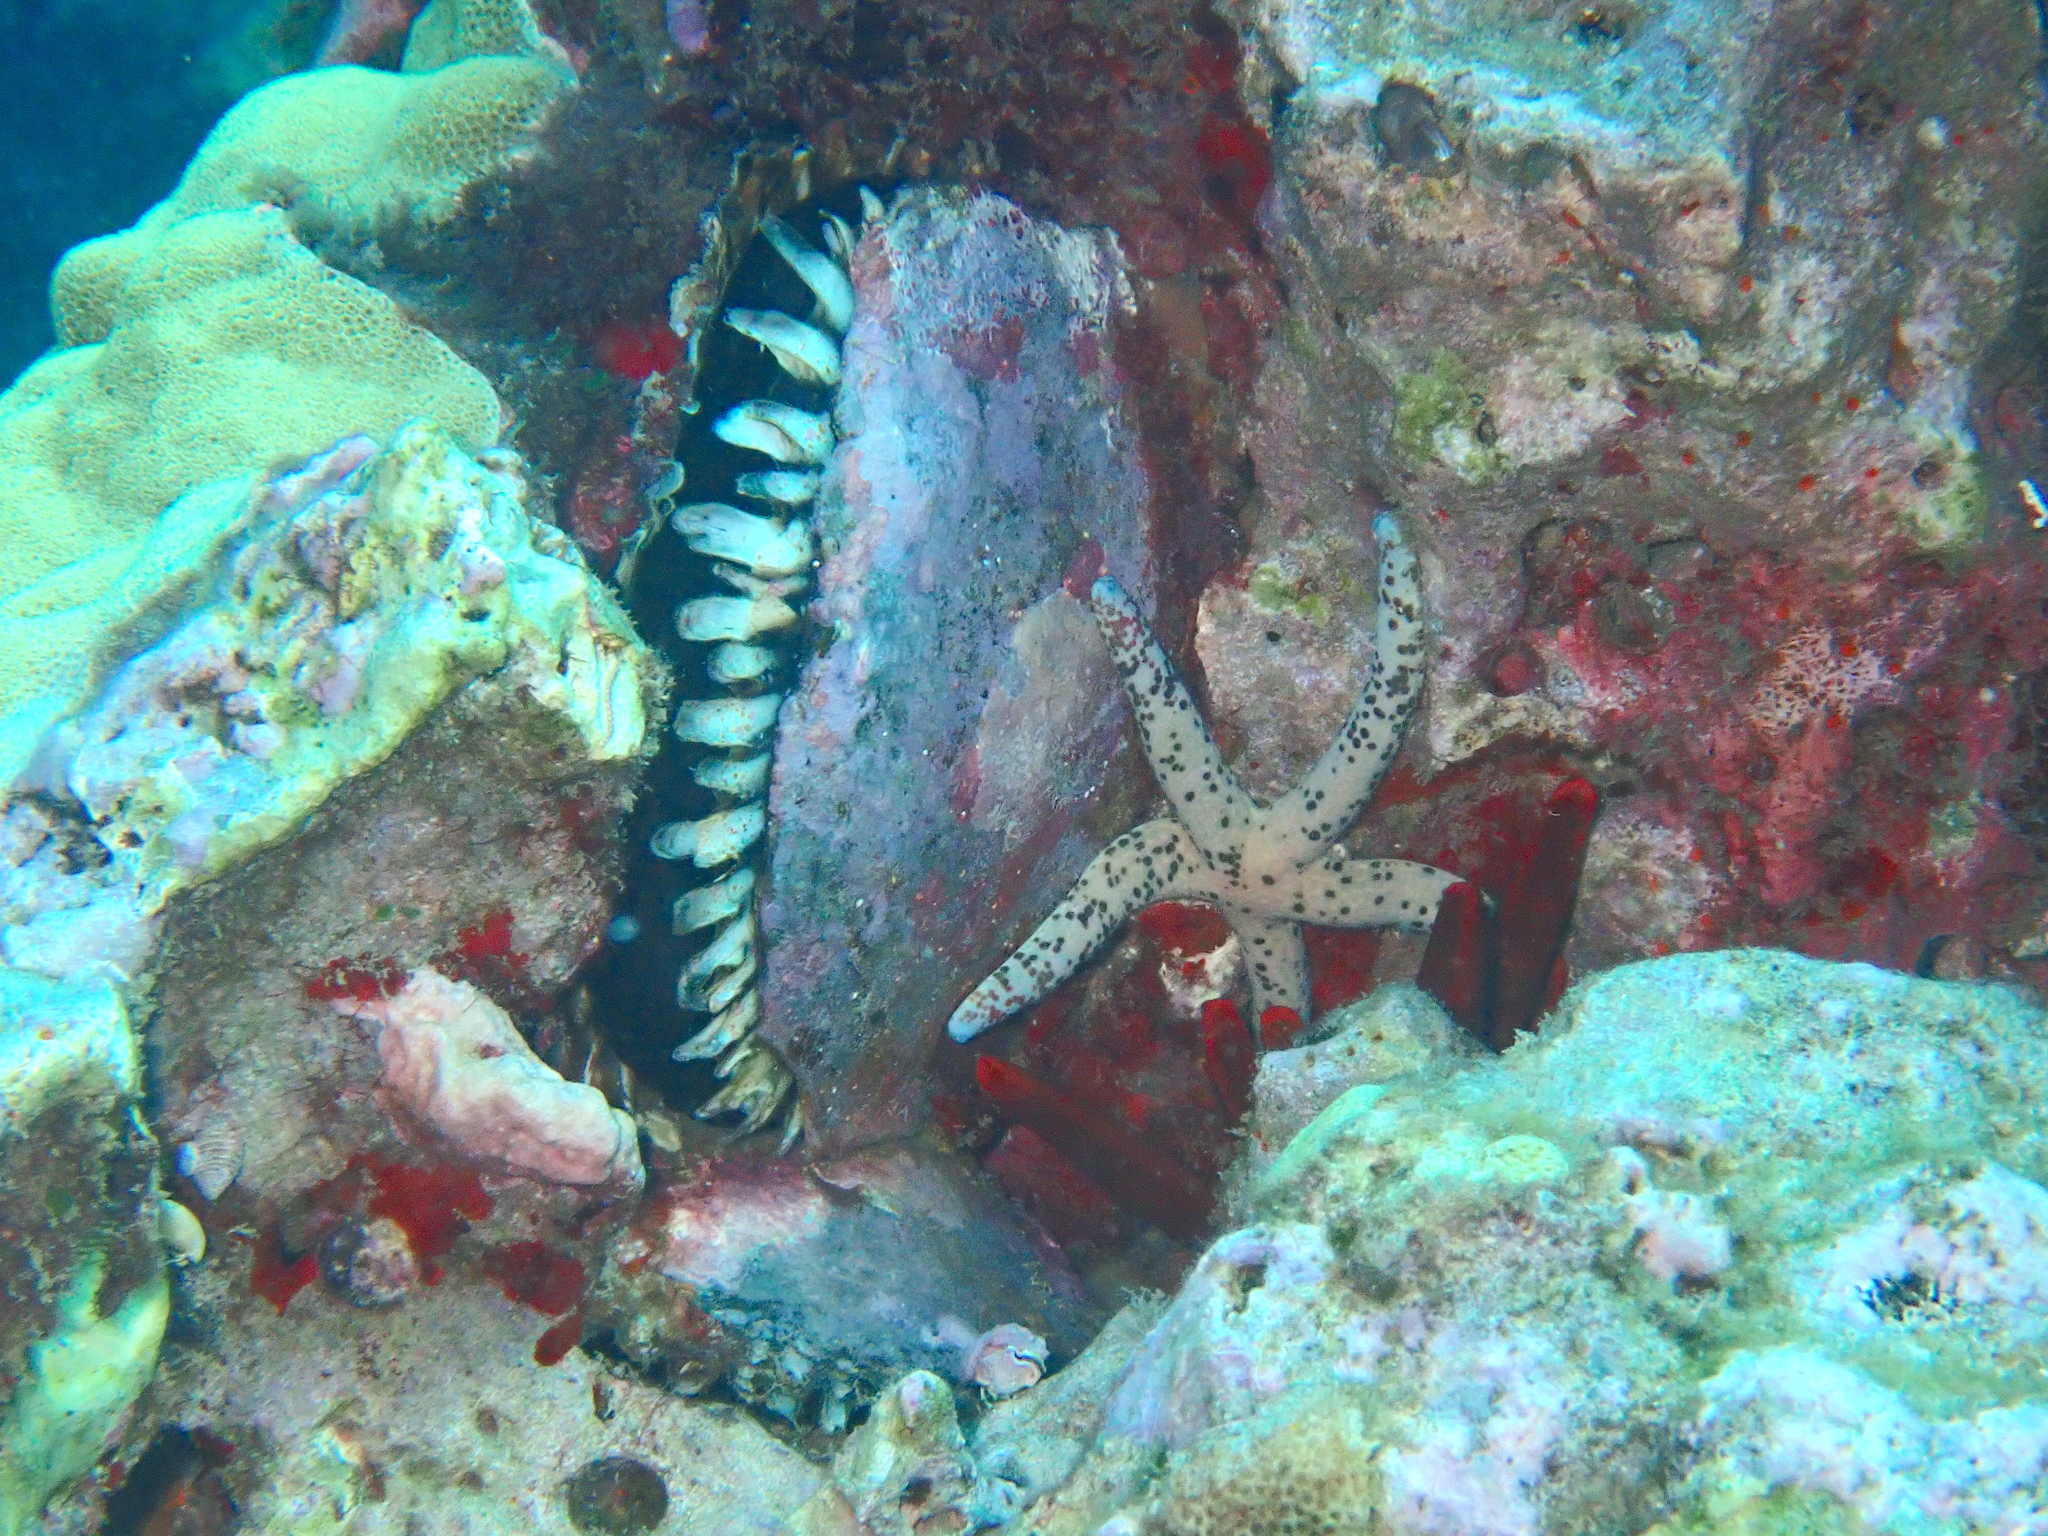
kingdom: Animalia
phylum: Echinodermata
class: Asteroidea
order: Valvatida
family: Ophidiasteridae
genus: Linckia
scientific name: Linckia multifora
